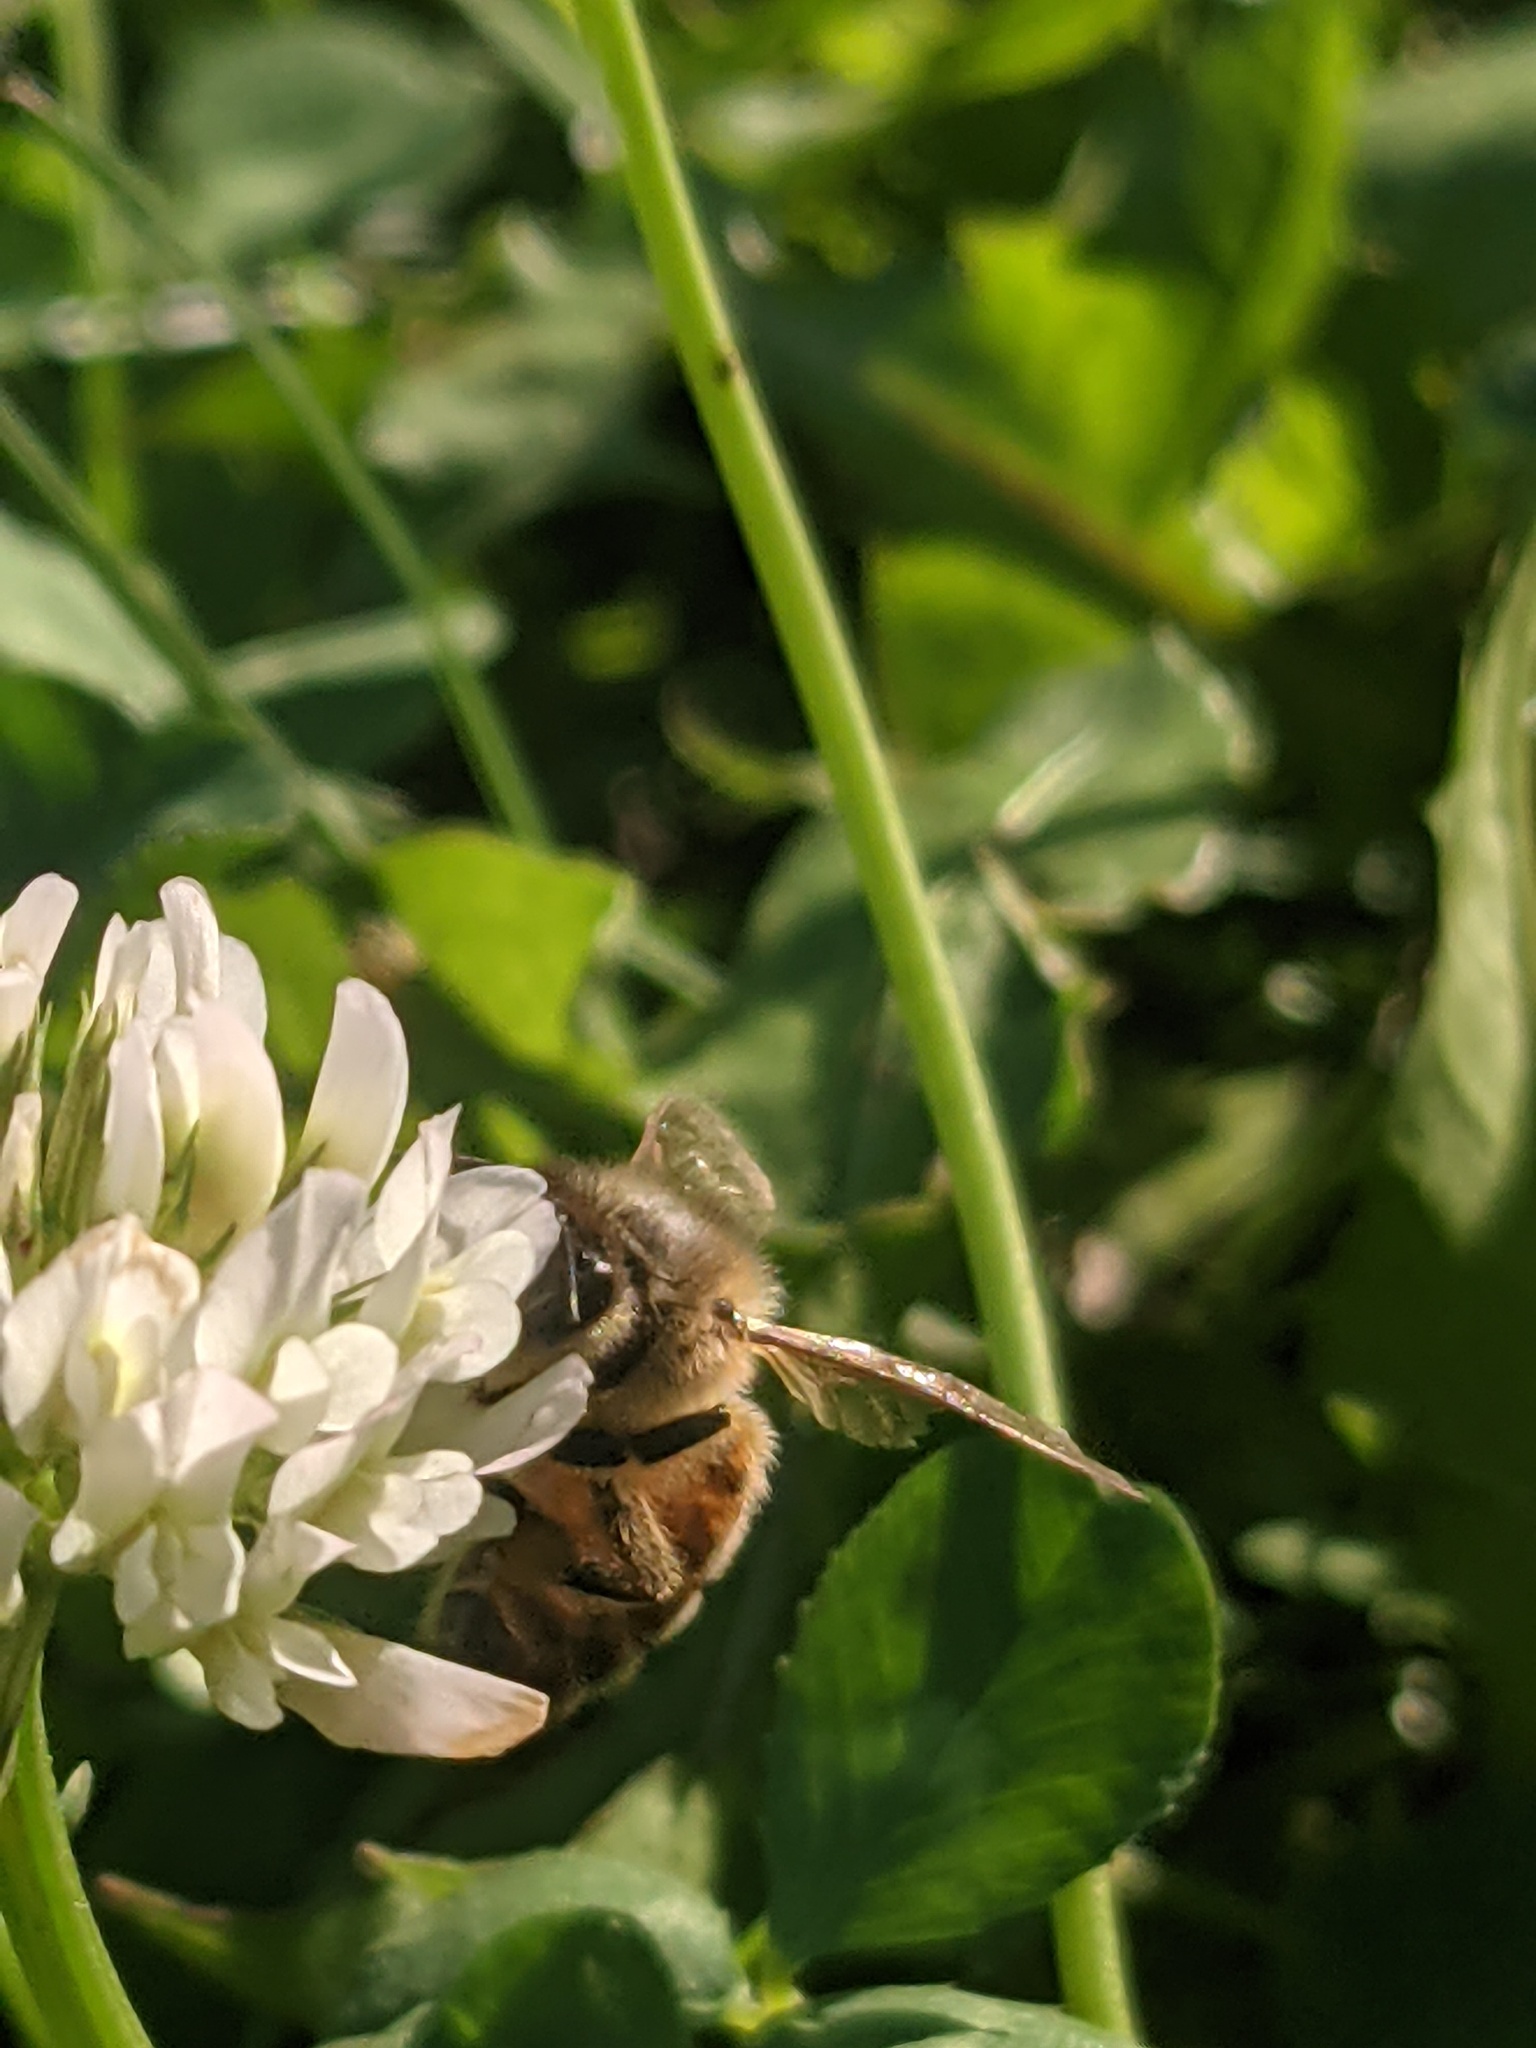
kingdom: Animalia
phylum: Arthropoda
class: Insecta
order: Hymenoptera
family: Apidae
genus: Apis
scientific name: Apis mellifera
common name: Honey bee
